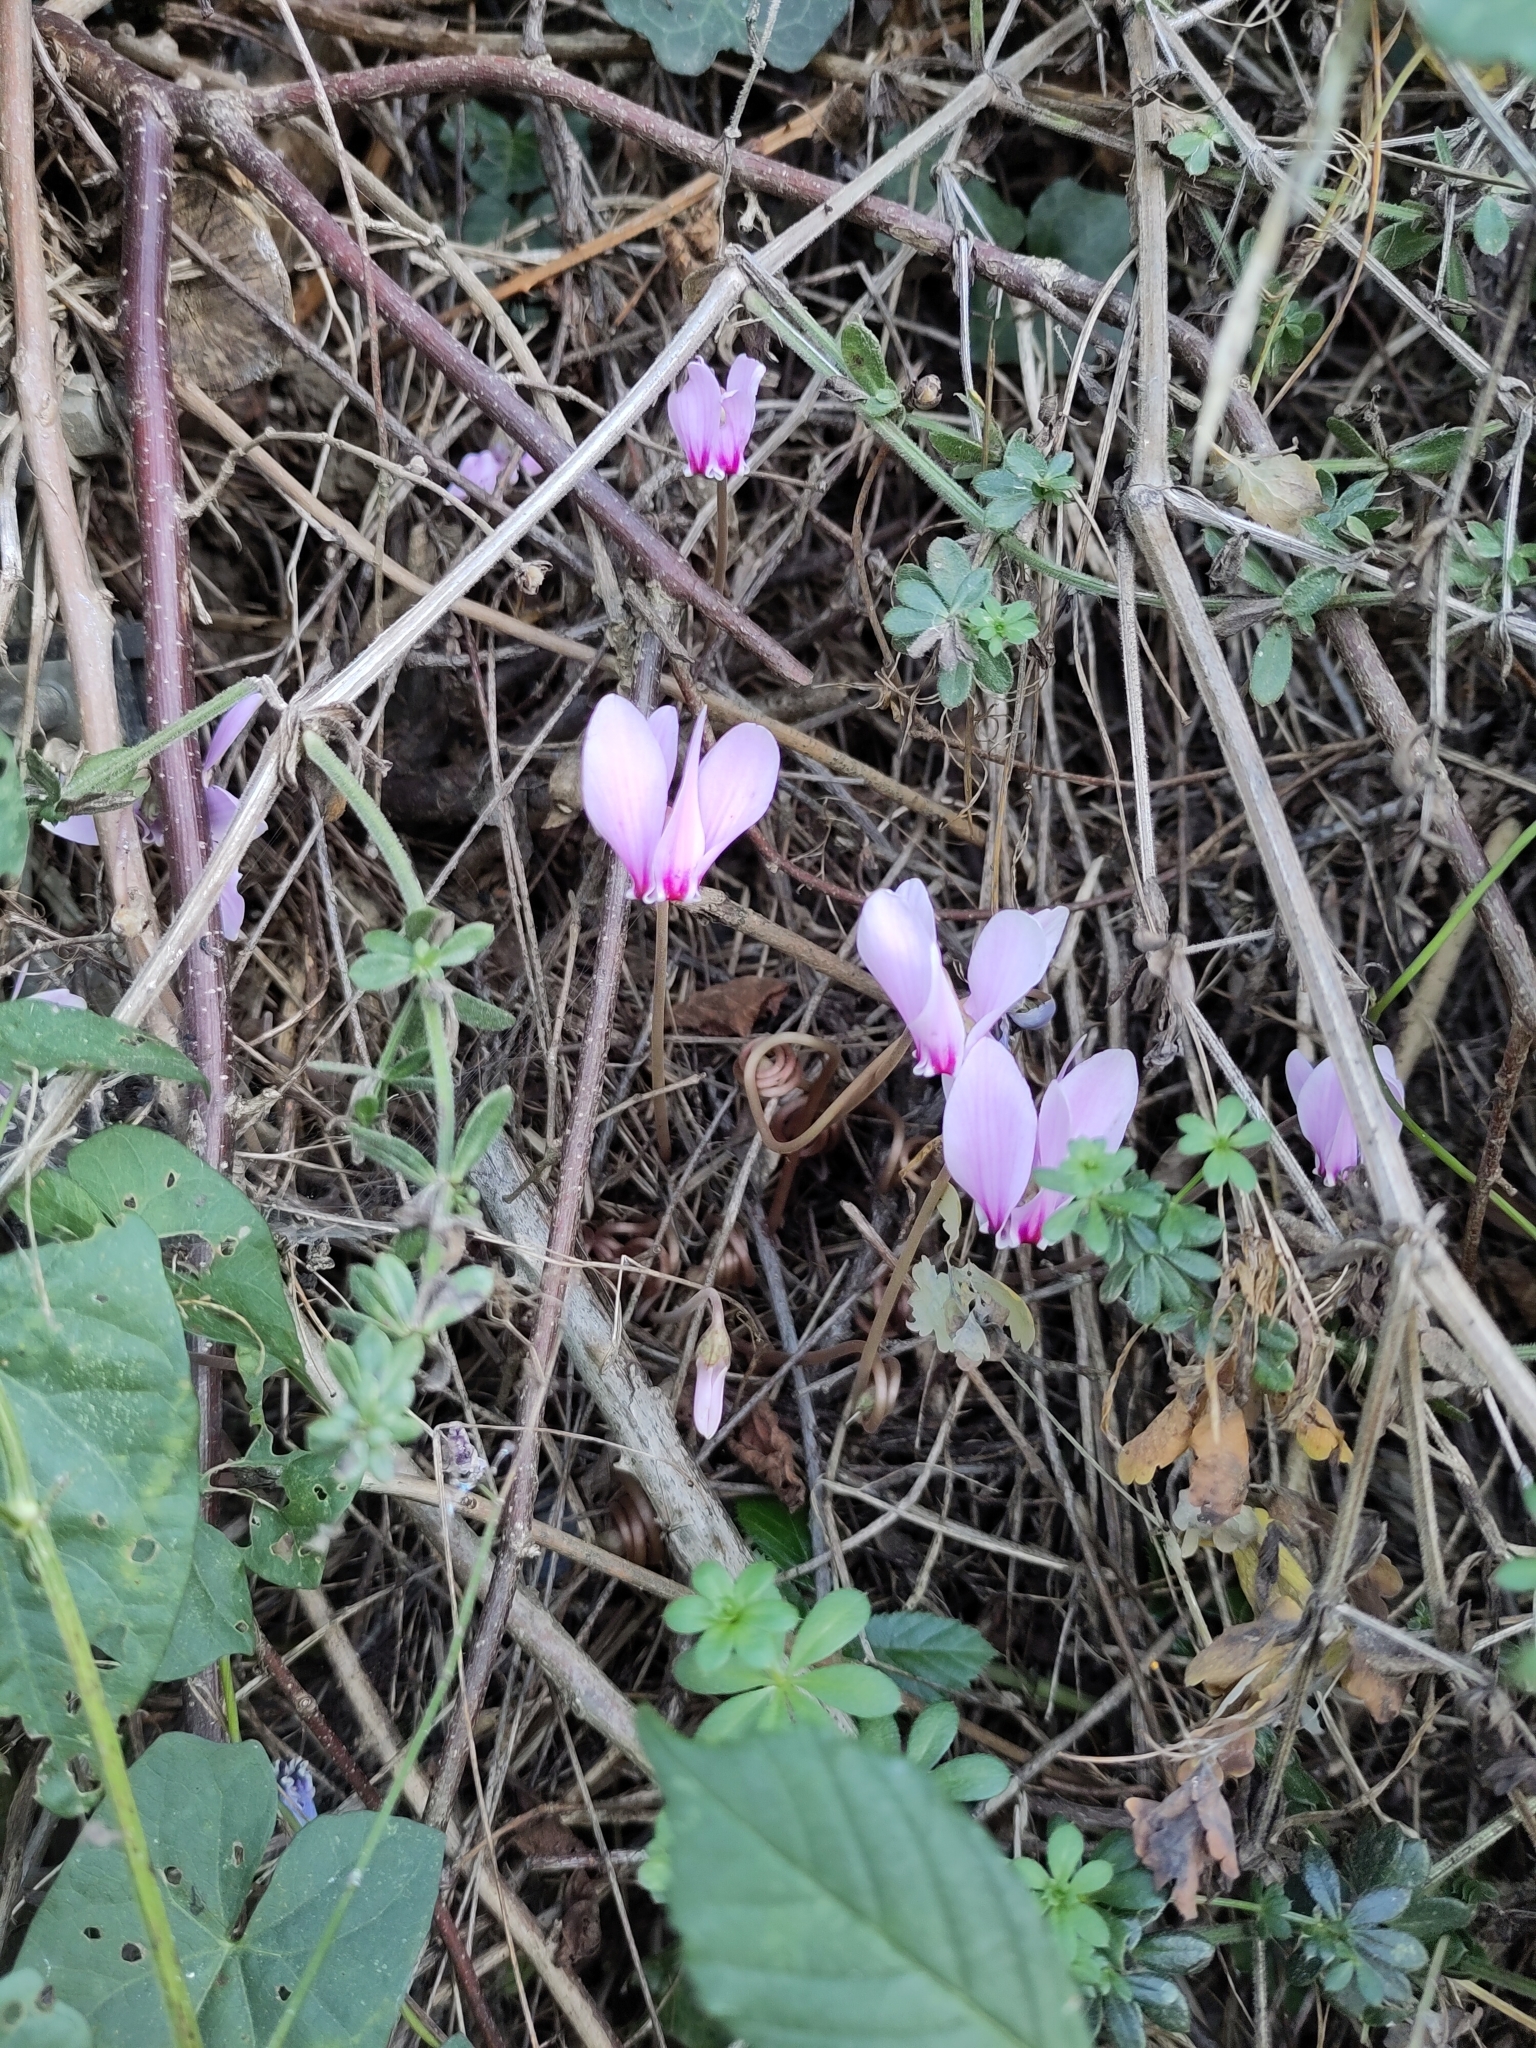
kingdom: Plantae
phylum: Tracheophyta
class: Magnoliopsida
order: Ericales
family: Primulaceae
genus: Cyclamen
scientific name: Cyclamen hederifolium
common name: Sowbread
